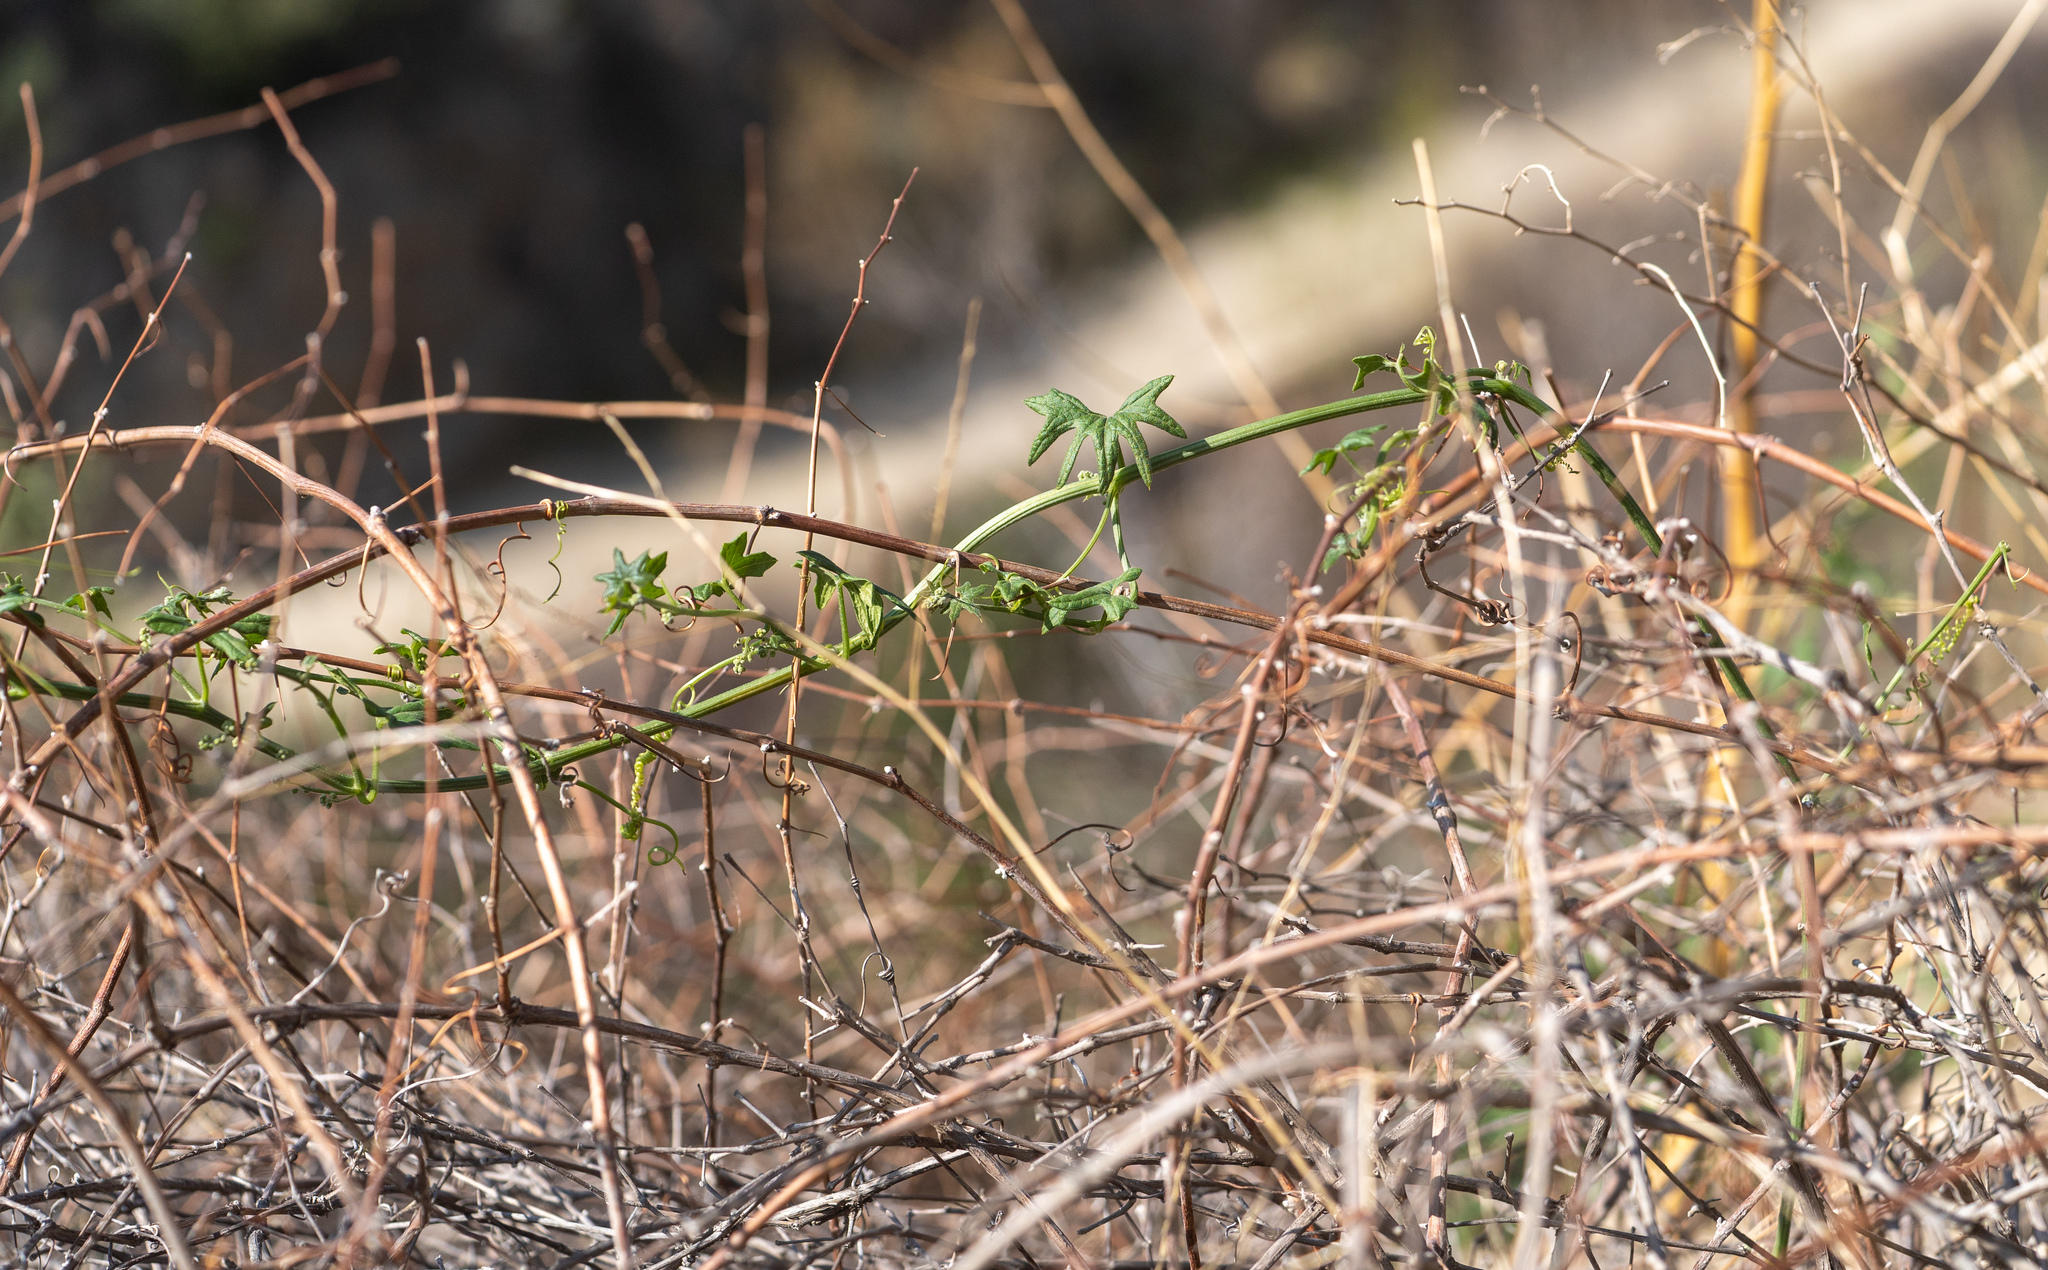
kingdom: Plantae
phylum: Tracheophyta
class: Magnoliopsida
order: Cucurbitales
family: Cucurbitaceae
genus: Marah
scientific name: Marah macrocarpa
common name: Cucamonga manroot
